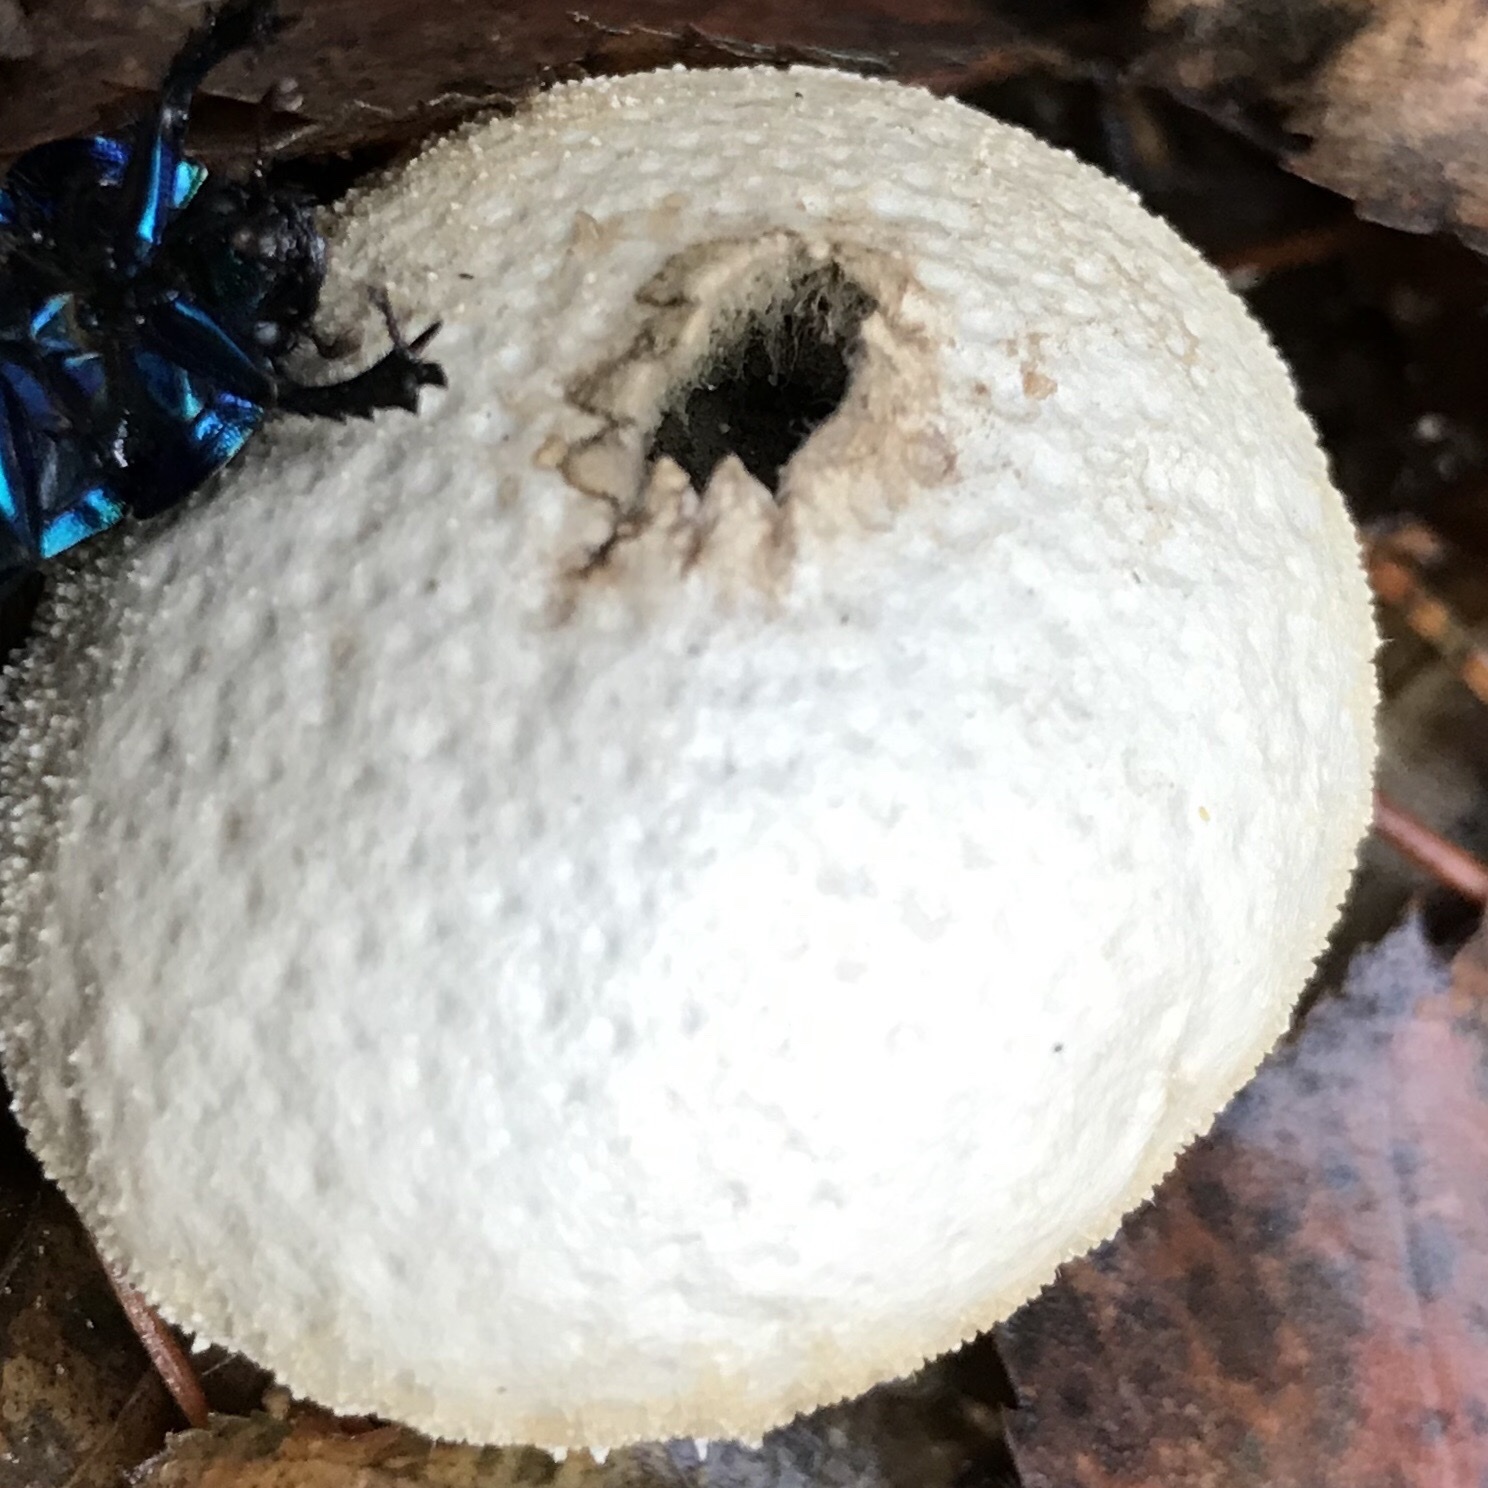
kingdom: Fungi
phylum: Basidiomycota
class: Agaricomycetes
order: Agaricales
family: Lycoperdaceae
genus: Lycoperdon
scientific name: Lycoperdon perlatum
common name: Common puffball
